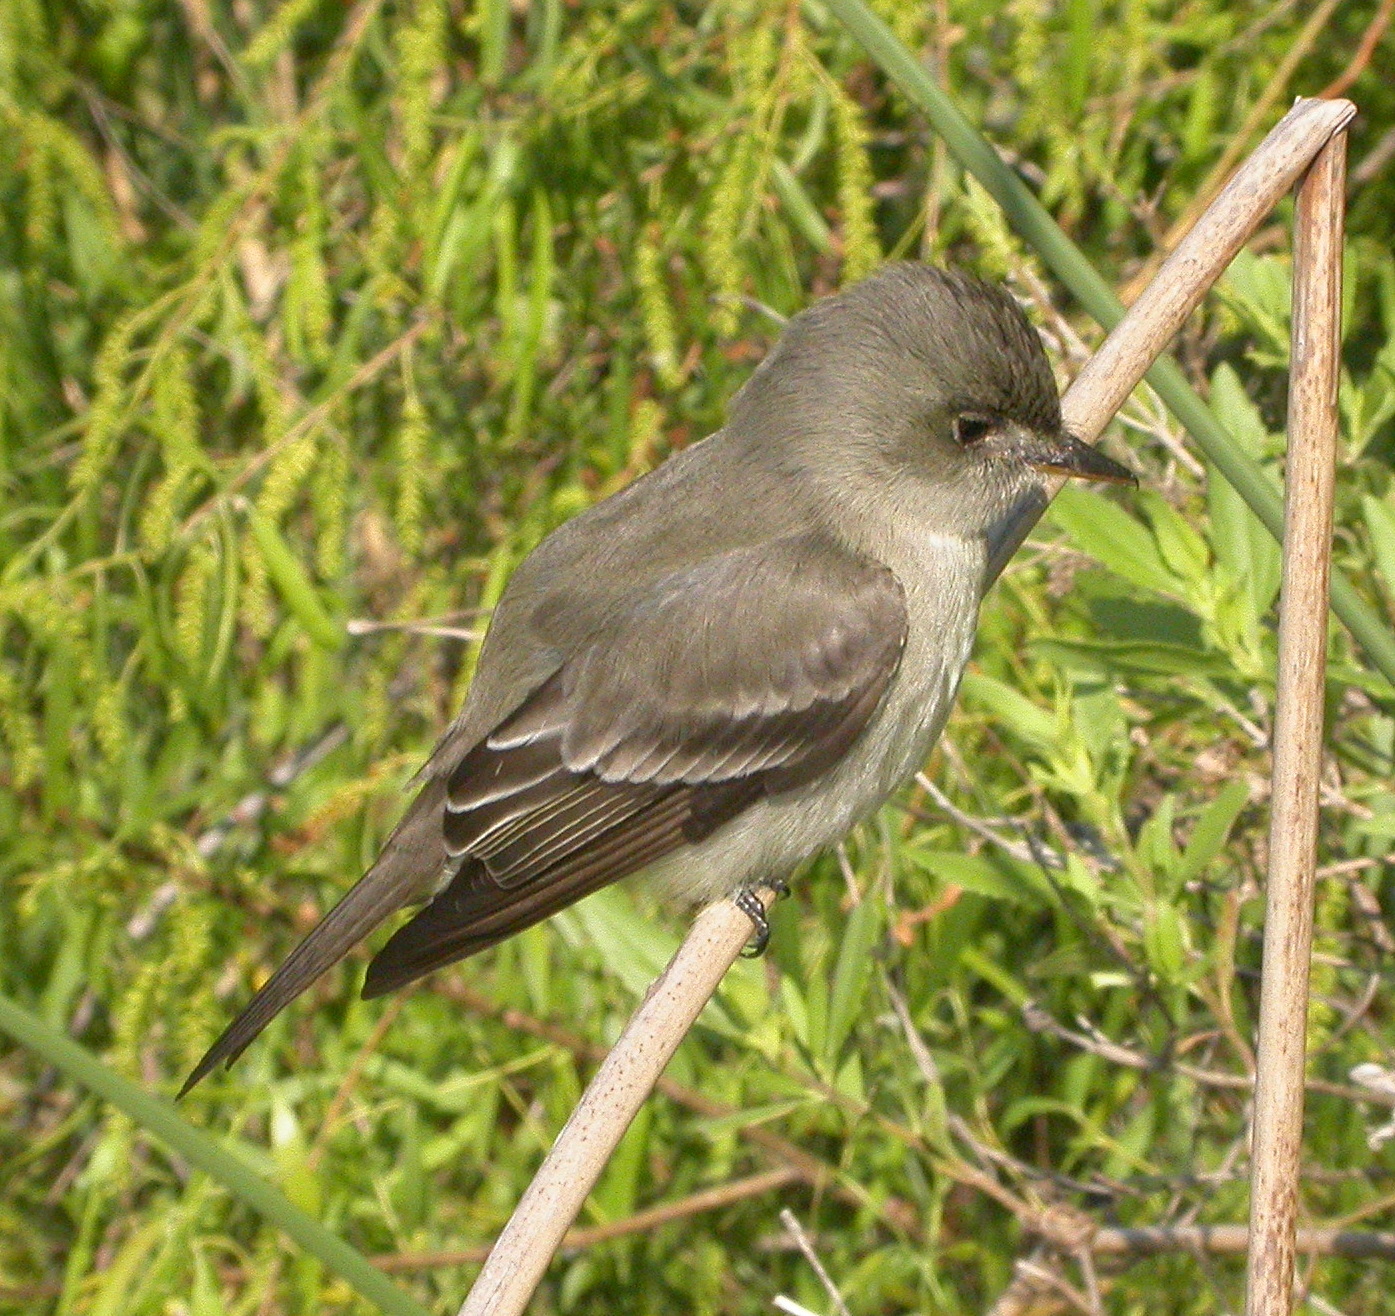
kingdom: Animalia
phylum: Chordata
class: Aves
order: Passeriformes
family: Tyrannidae
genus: Contopus
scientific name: Contopus virens
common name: Eastern wood-pewee
